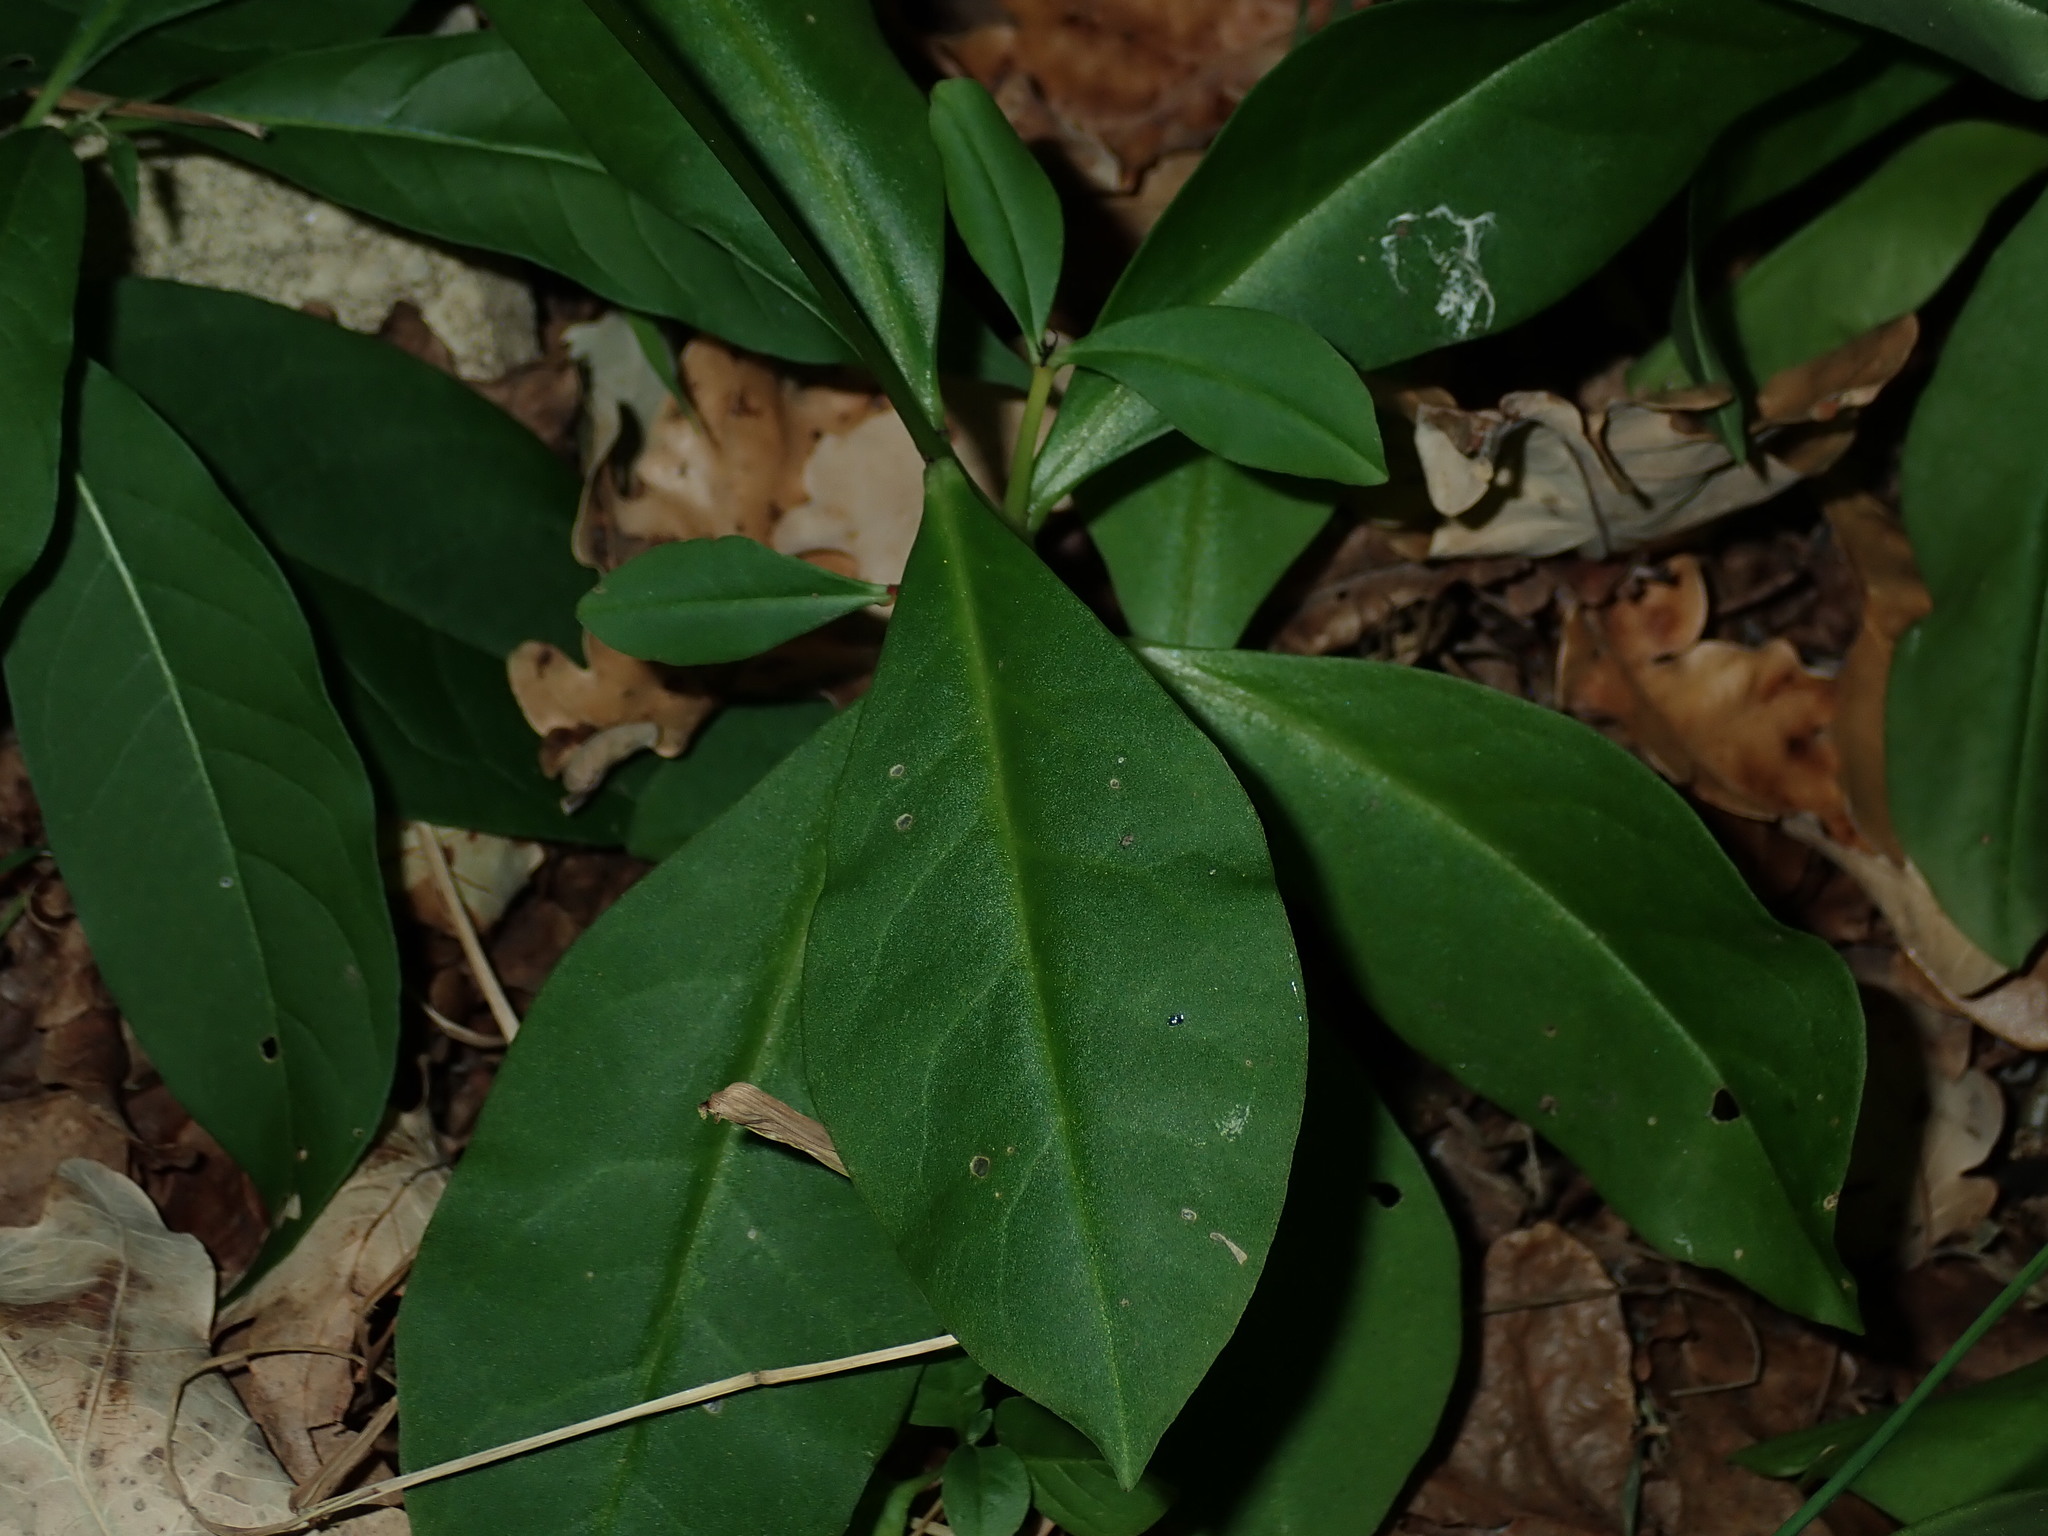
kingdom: Plantae
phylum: Tracheophyta
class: Magnoliopsida
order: Caryophyllales
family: Talinaceae
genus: Talinum
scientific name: Talinum paniculatum
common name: Jewels of opar
